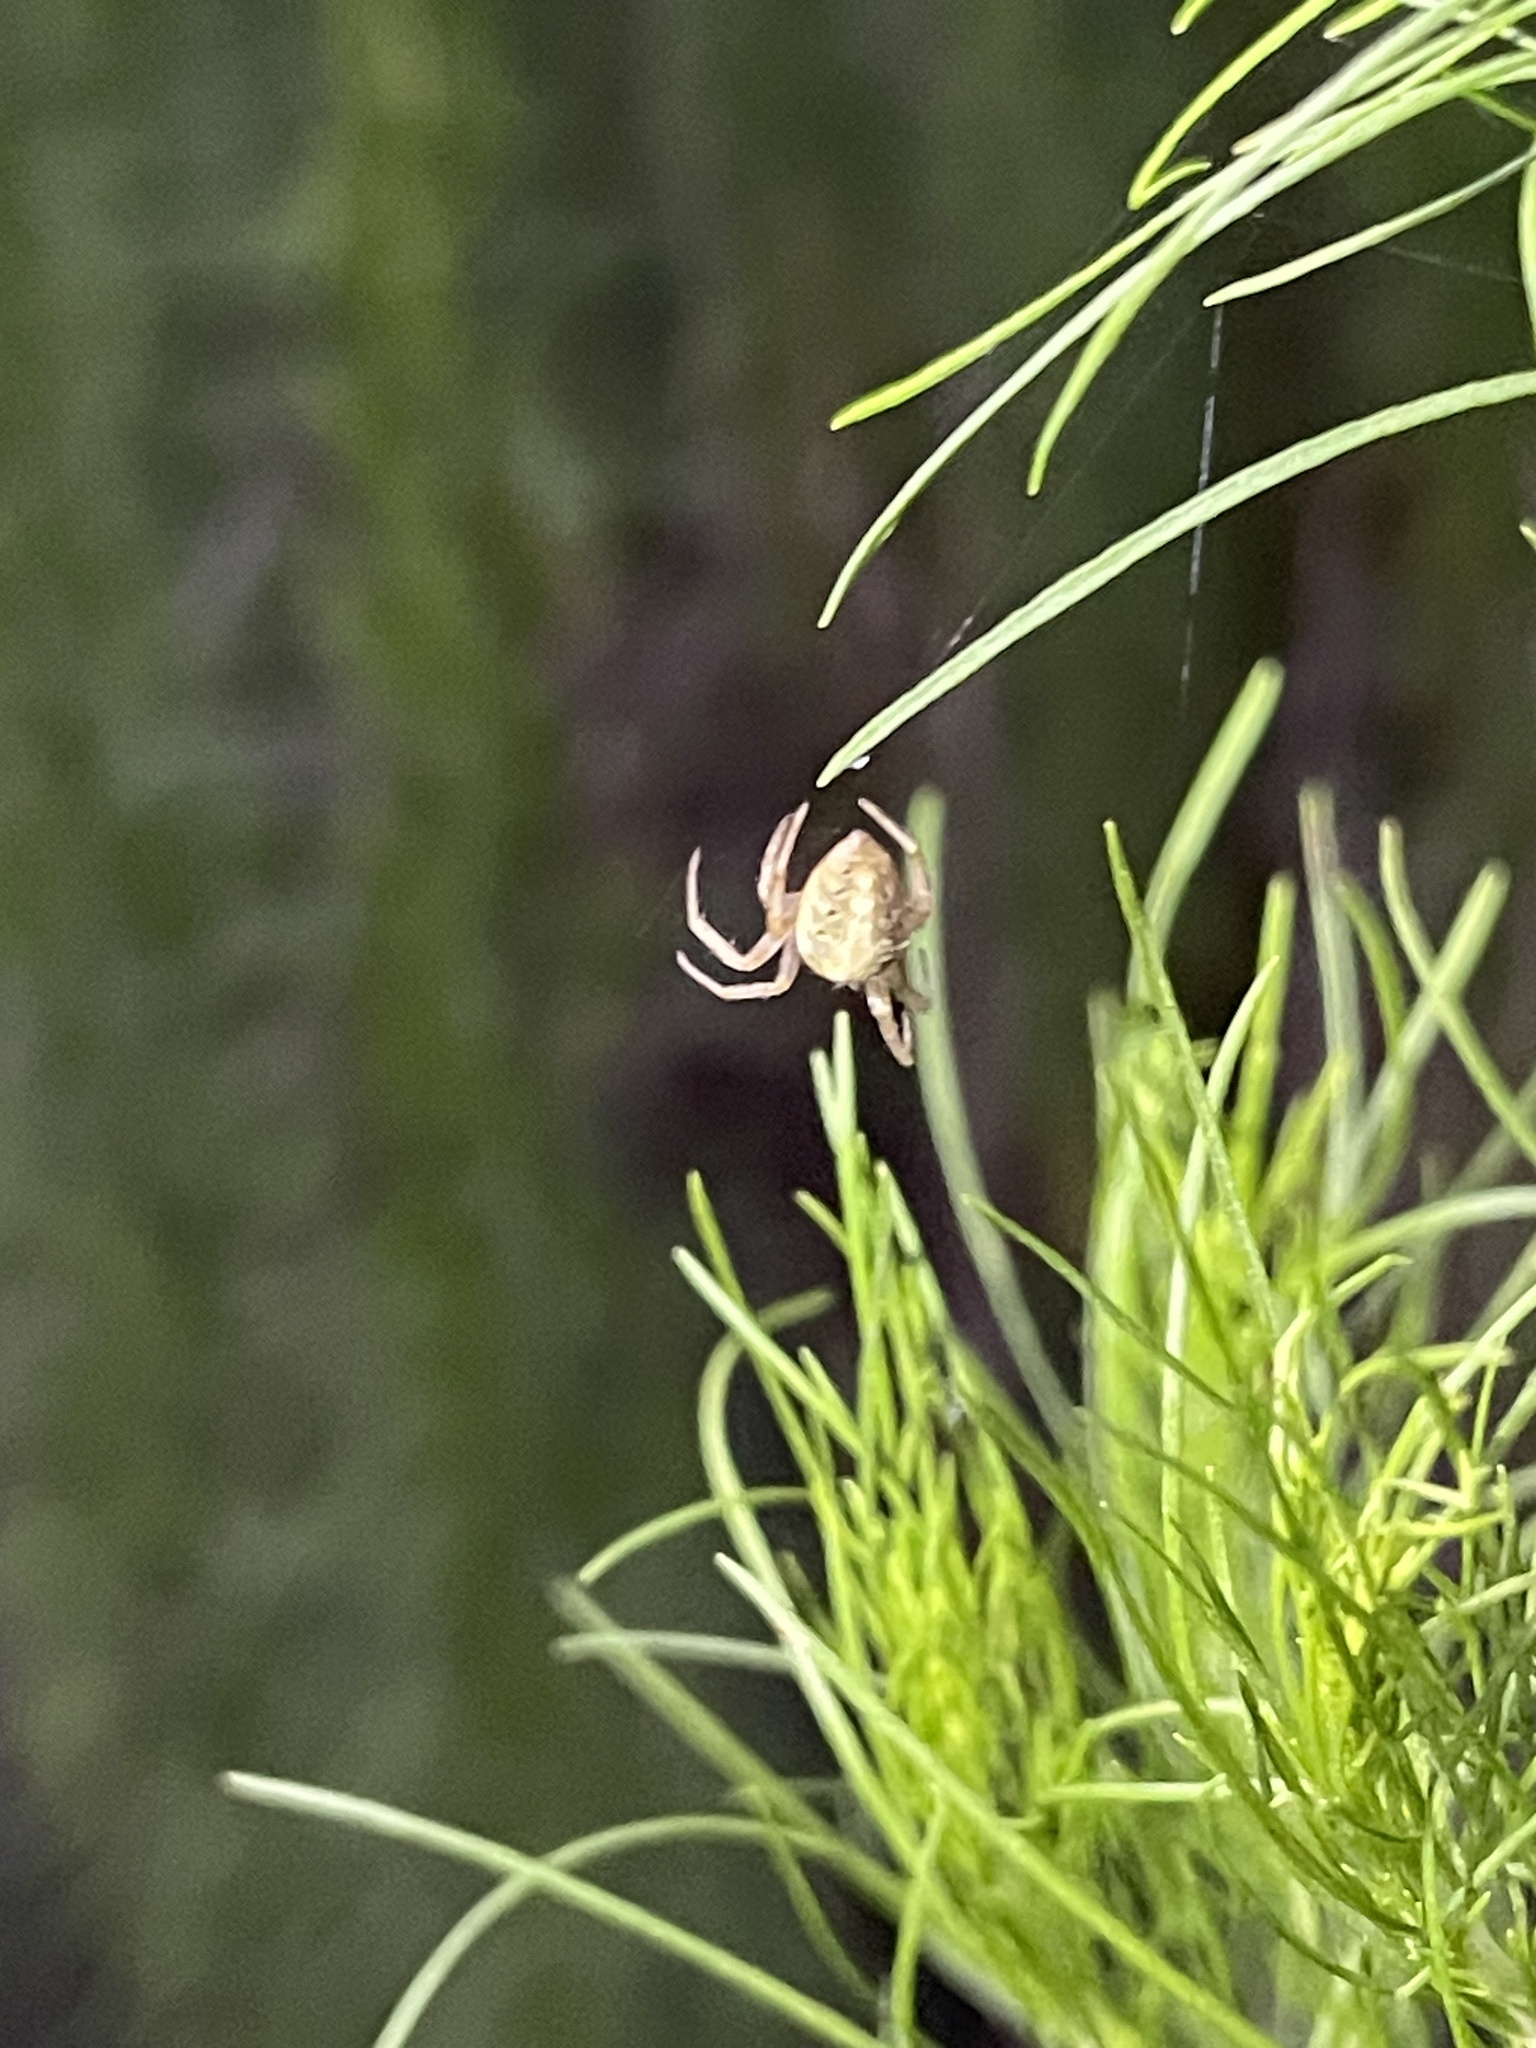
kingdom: Animalia
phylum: Arthropoda
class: Arachnida
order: Araneae
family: Araneidae
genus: Neoscona
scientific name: Neoscona arabesca
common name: Orb weavers
